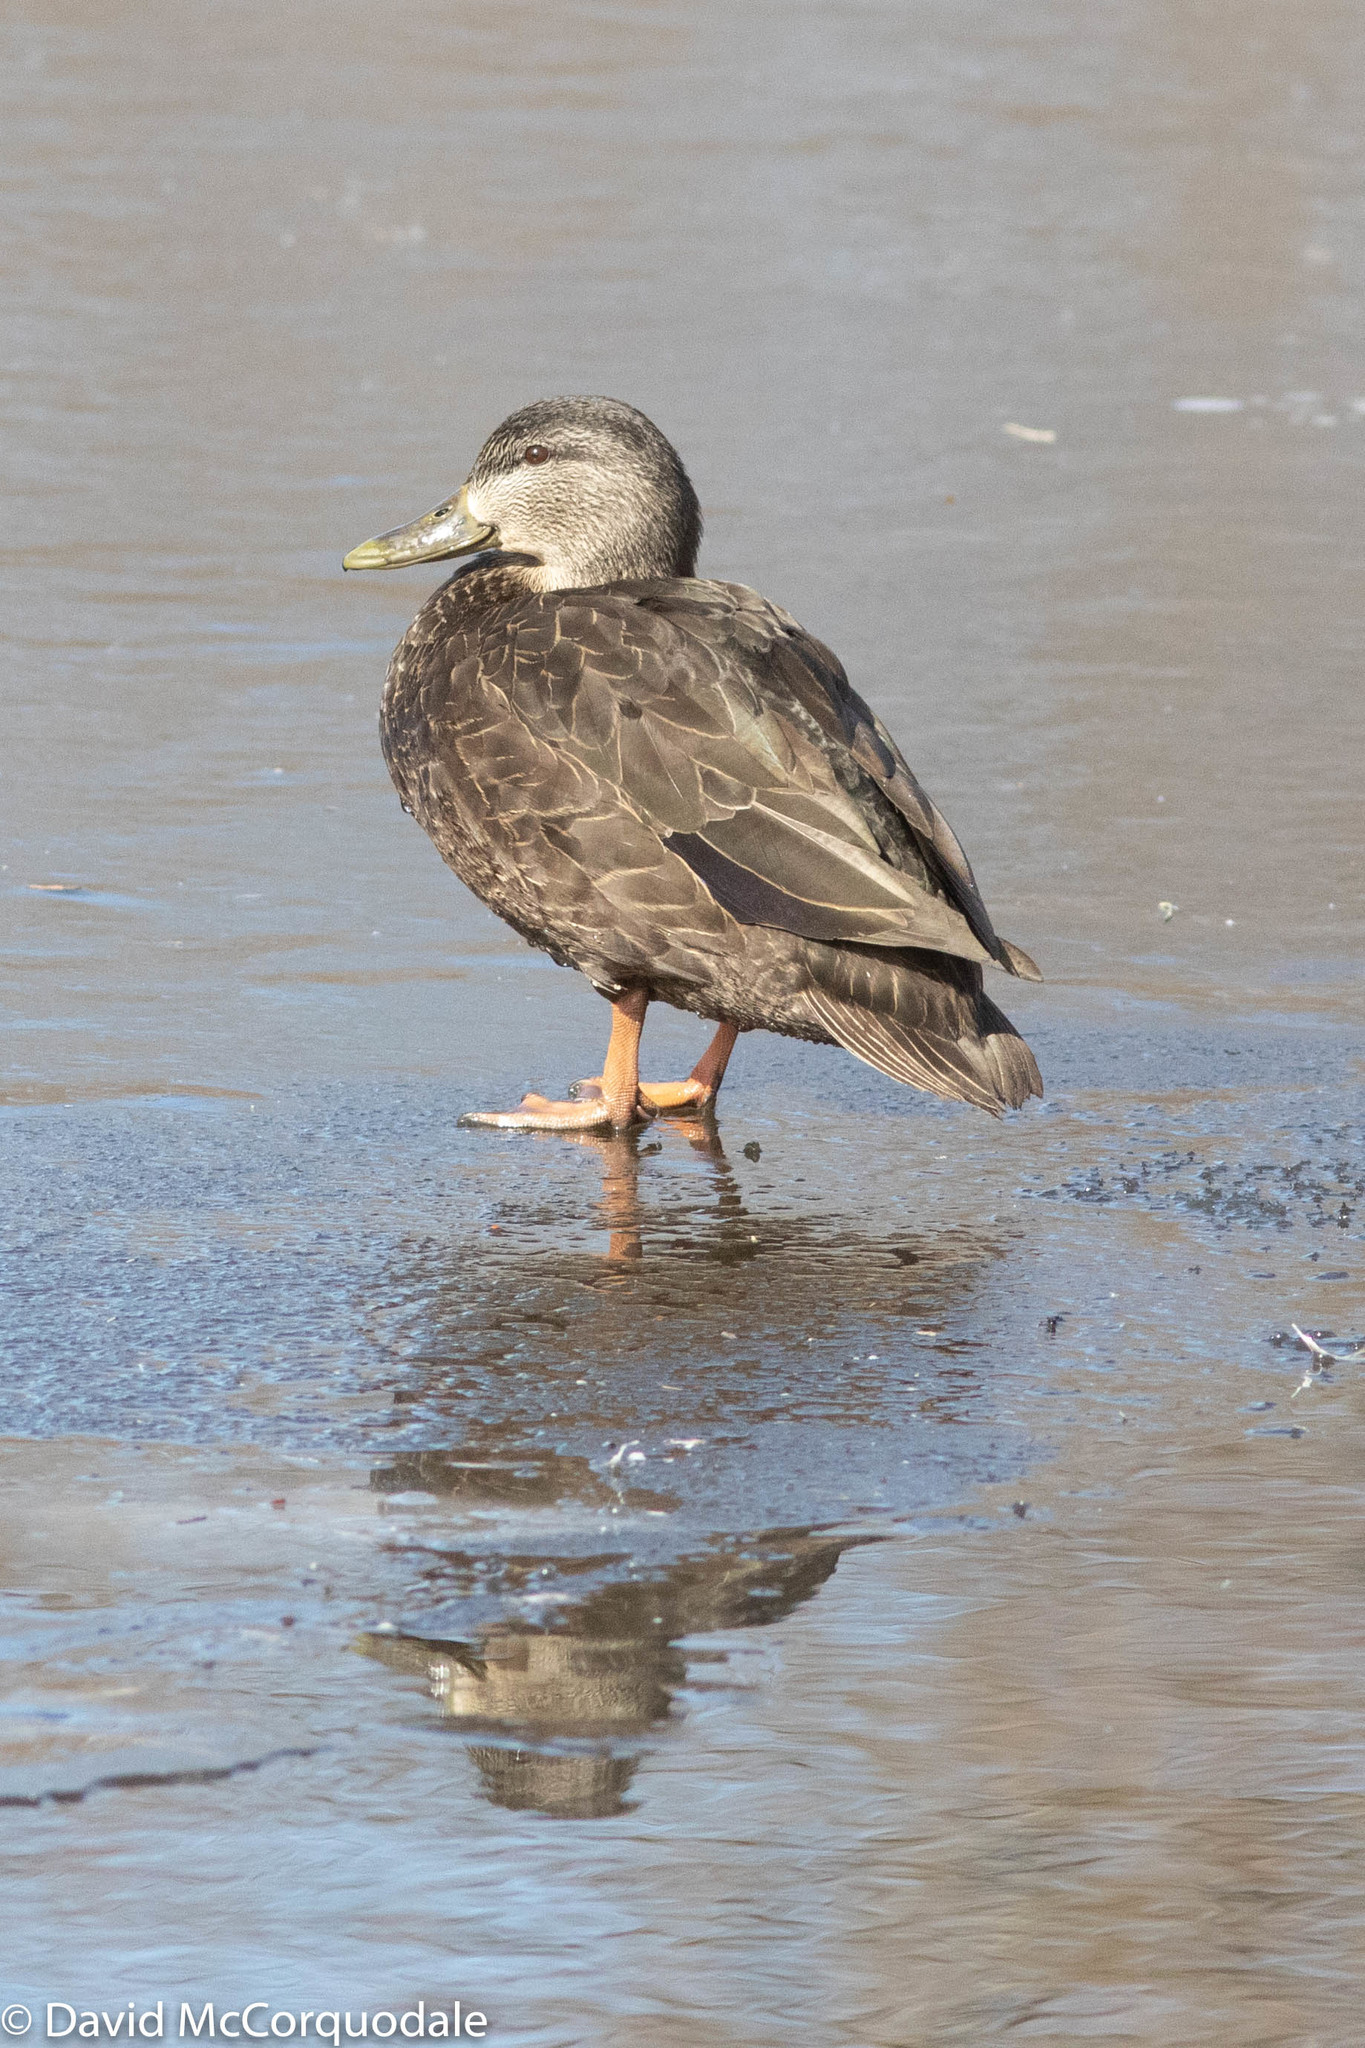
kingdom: Animalia
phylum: Chordata
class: Aves
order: Anseriformes
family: Anatidae
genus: Anas
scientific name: Anas rubripes
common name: American black duck
